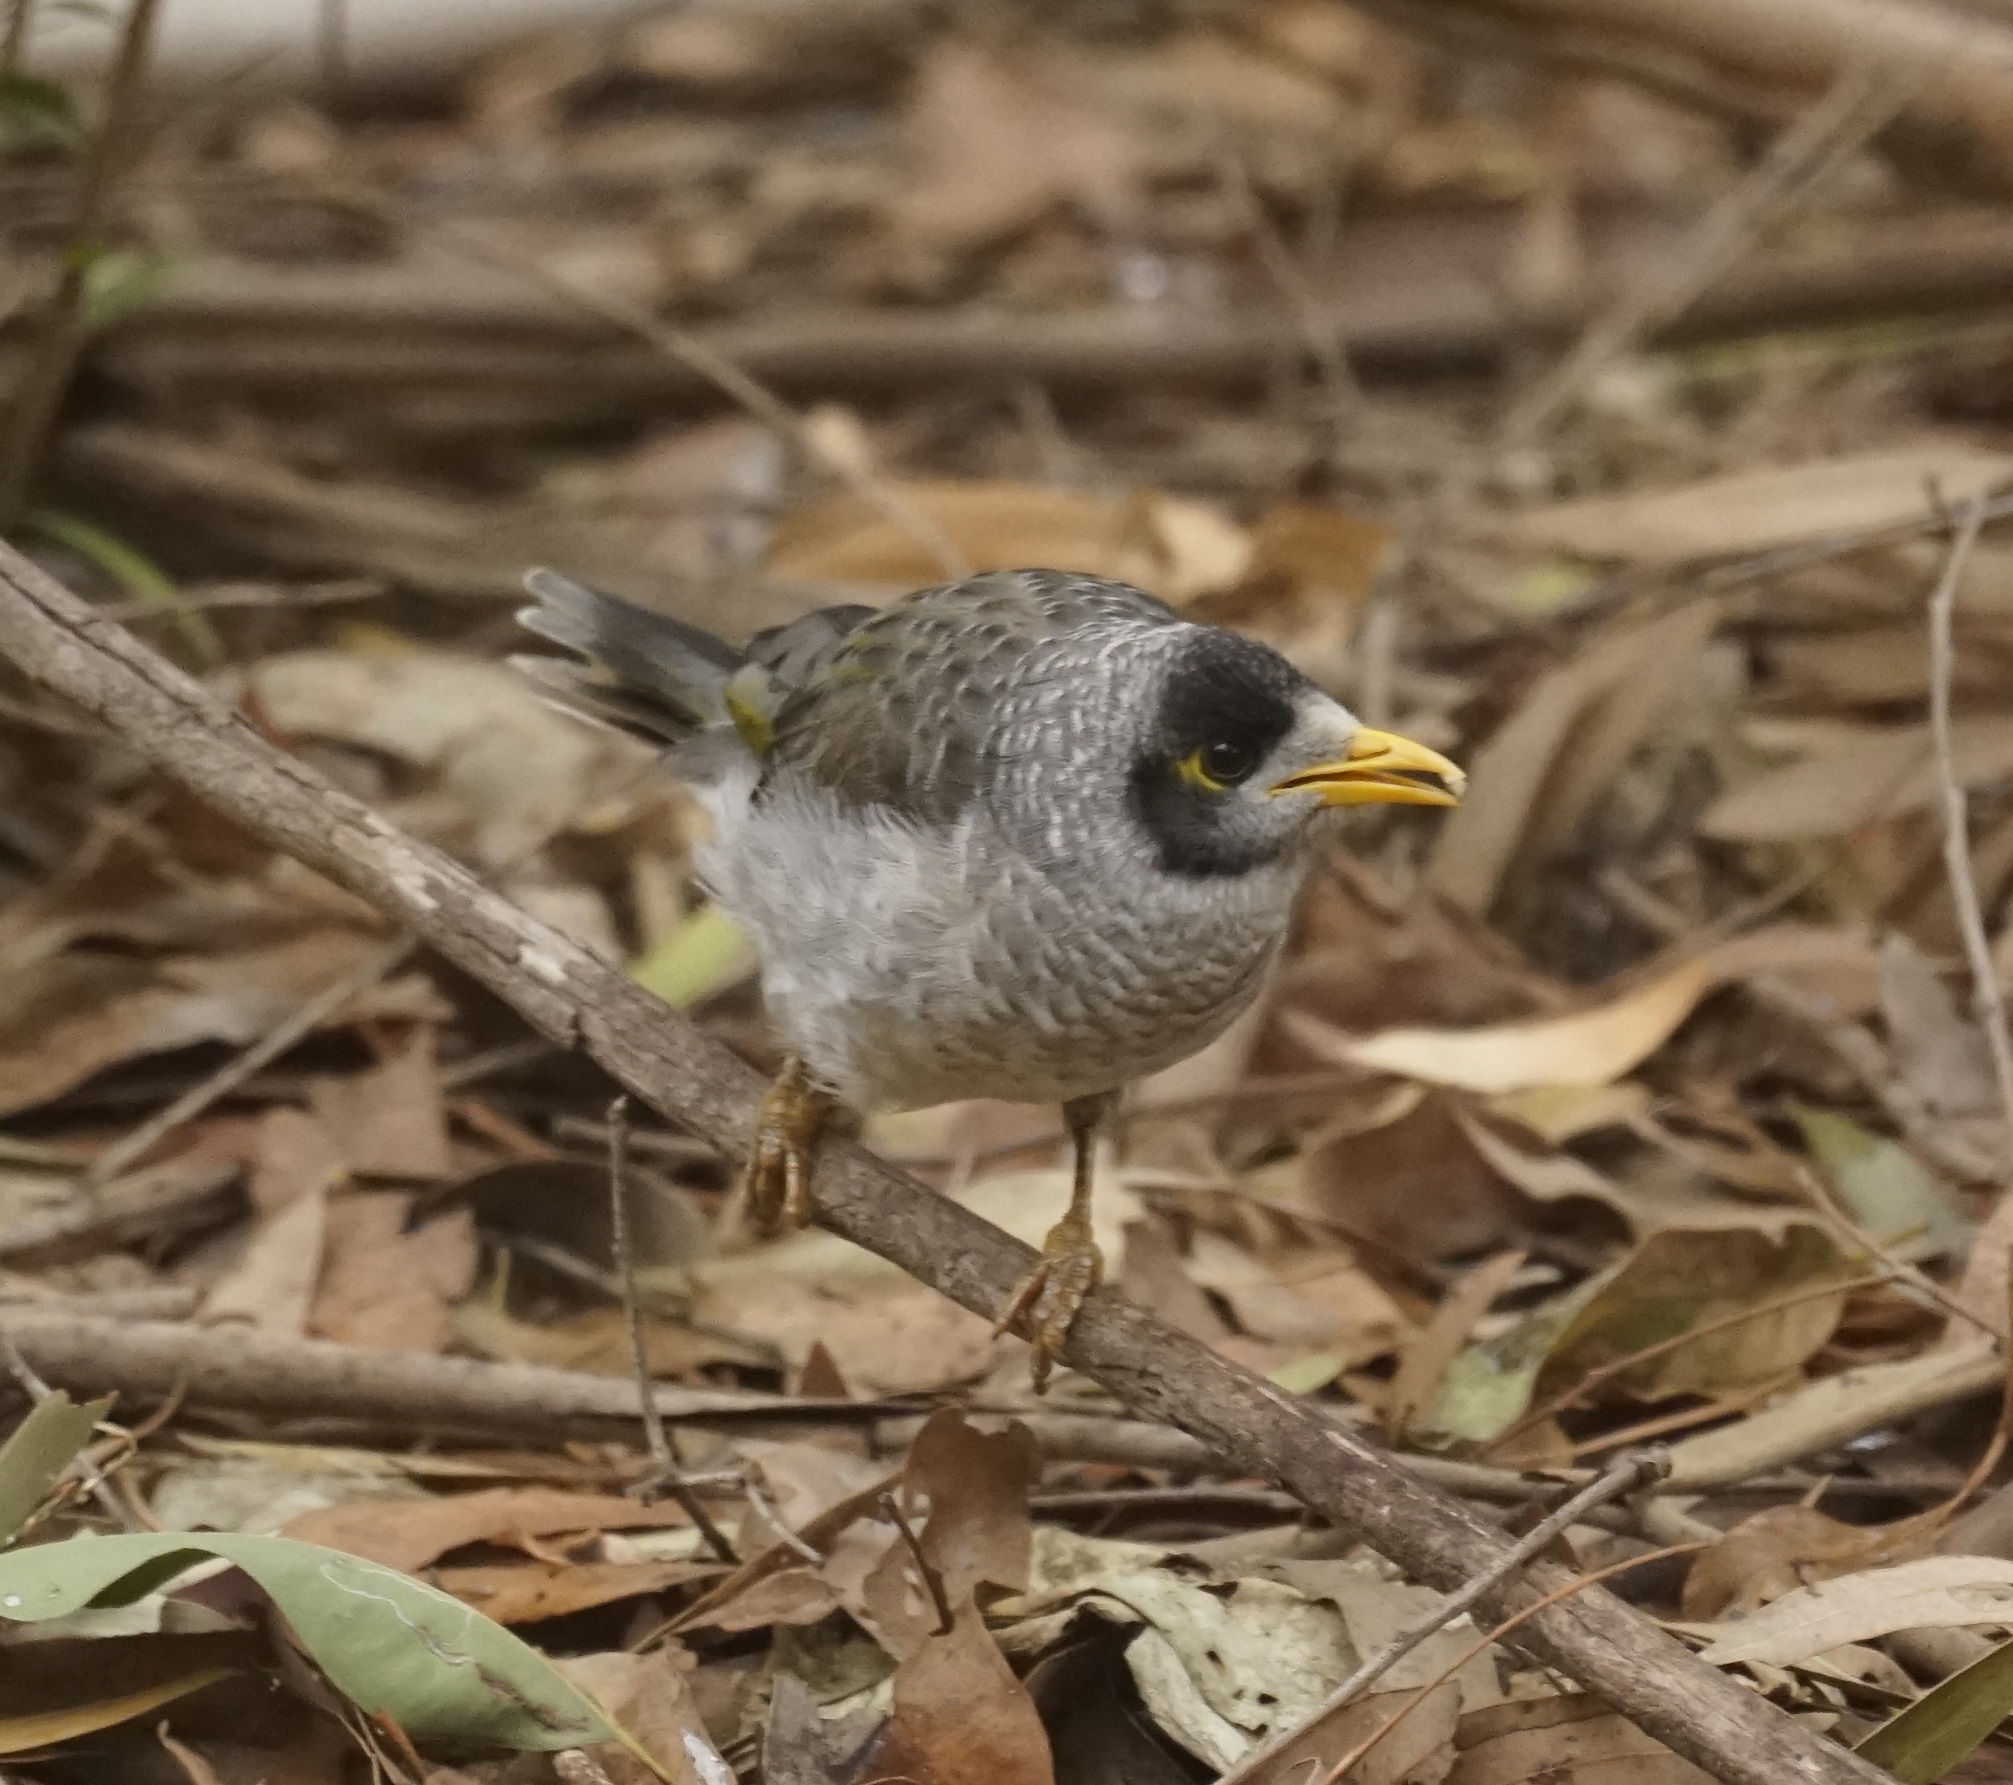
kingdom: Animalia
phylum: Chordata
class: Aves
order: Passeriformes
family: Meliphagidae
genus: Manorina
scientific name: Manorina melanocephala
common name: Noisy miner
